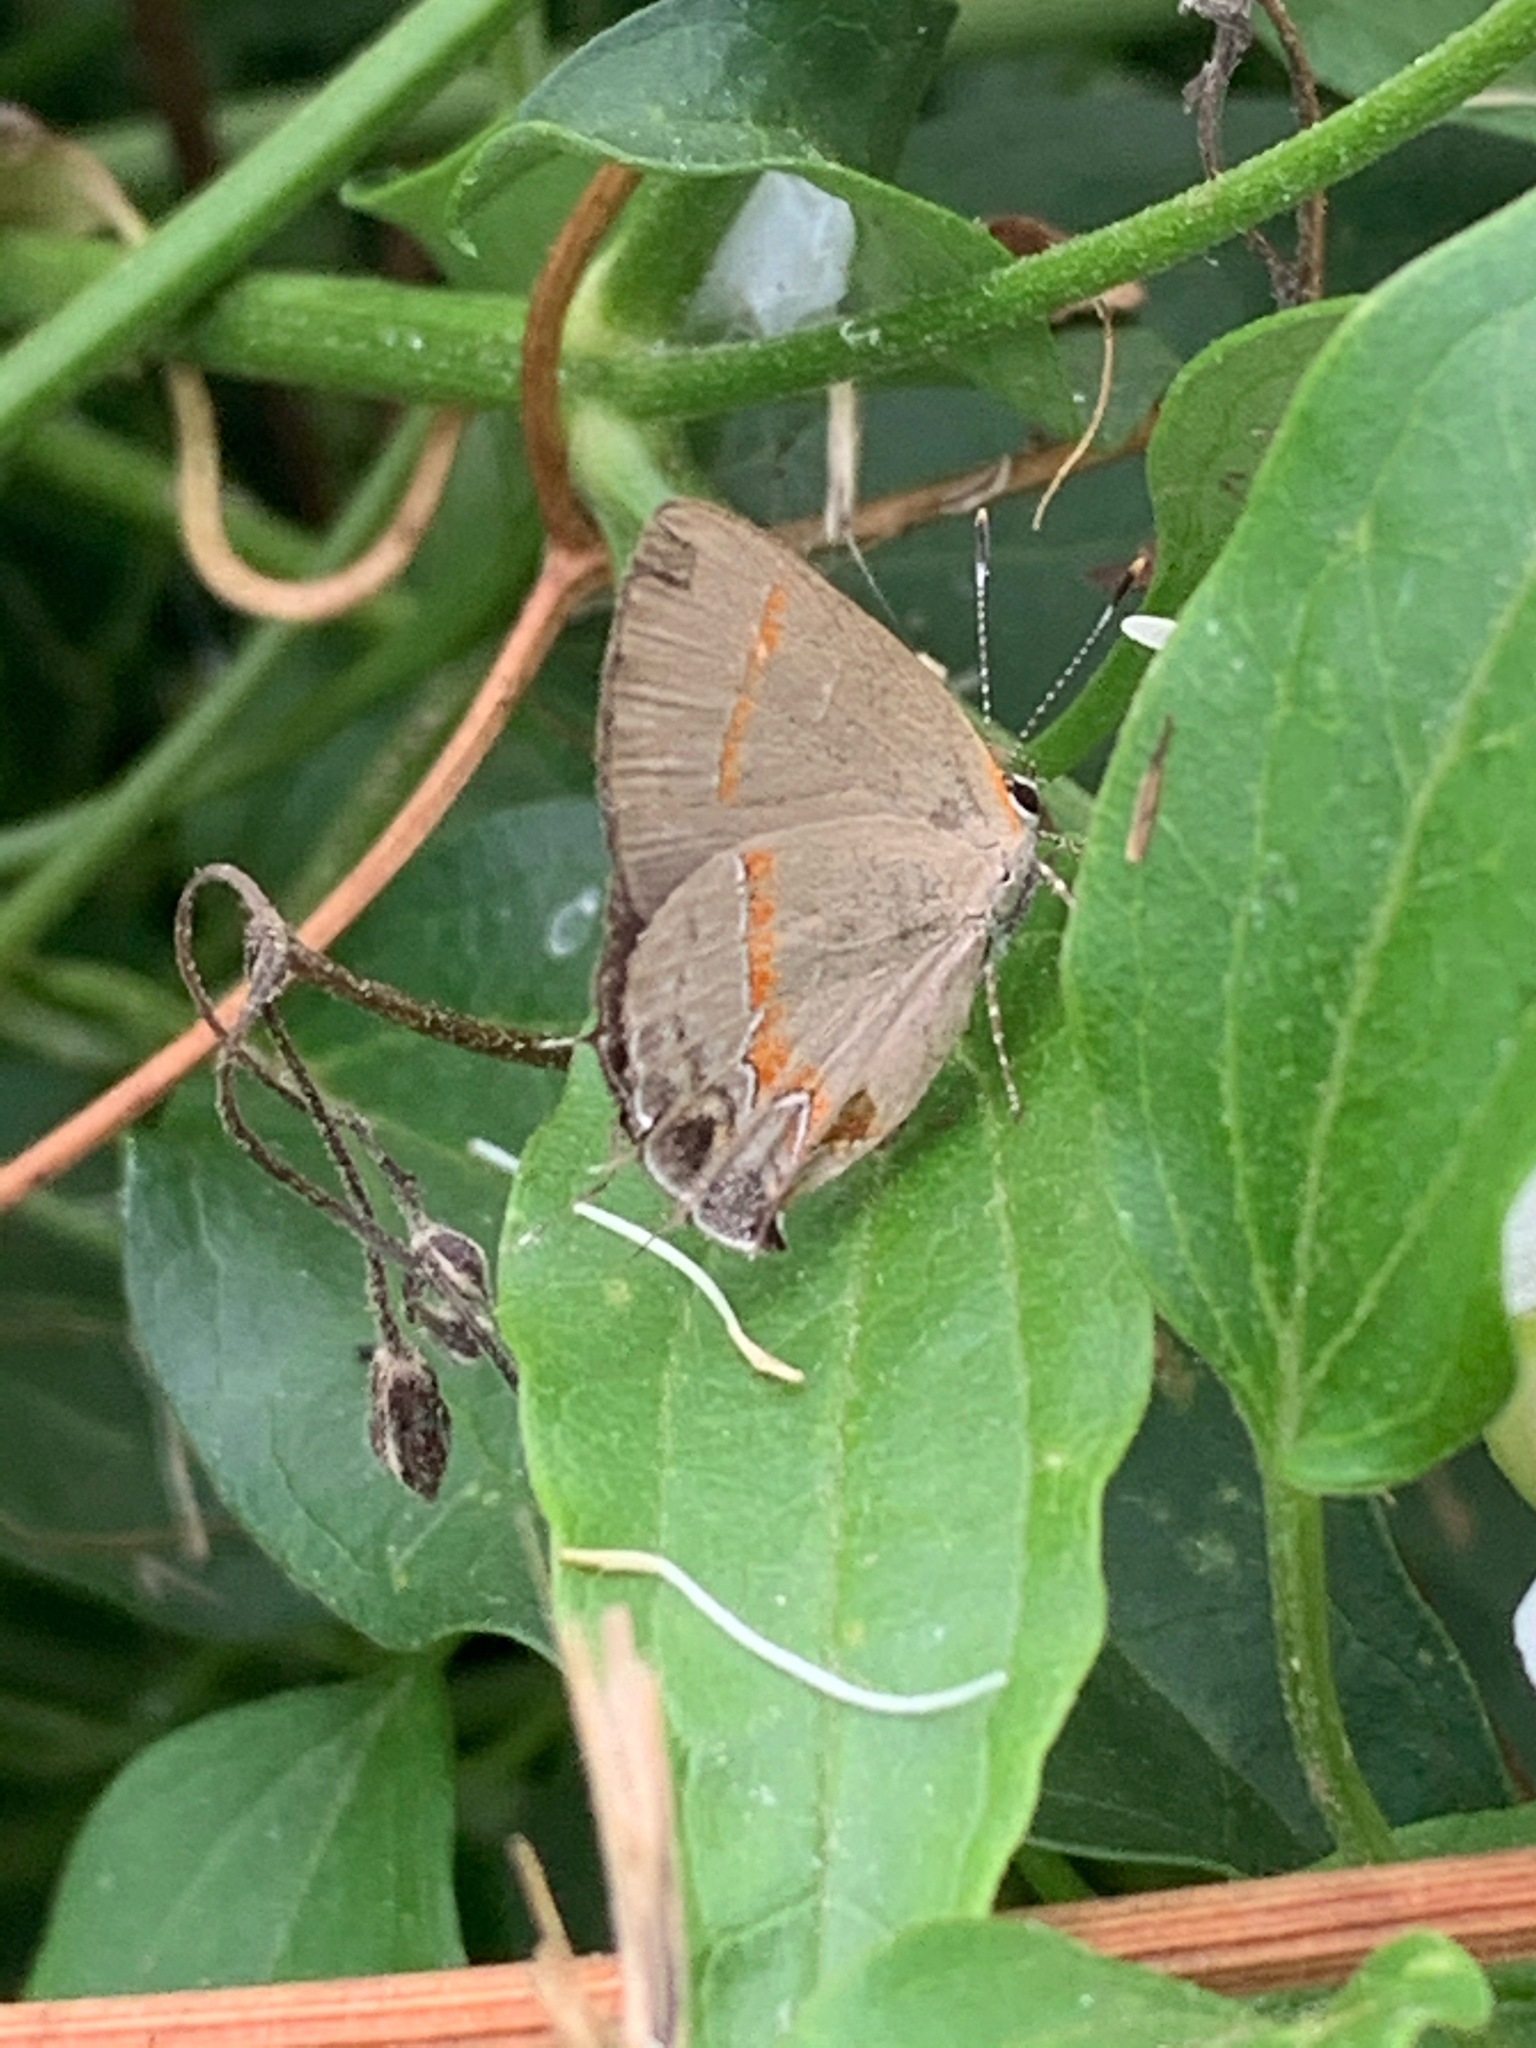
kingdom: Animalia
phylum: Arthropoda
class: Insecta
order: Lepidoptera
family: Lycaenidae
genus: Calycopis
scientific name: Calycopis cecrops
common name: Red-banded hairstreak
